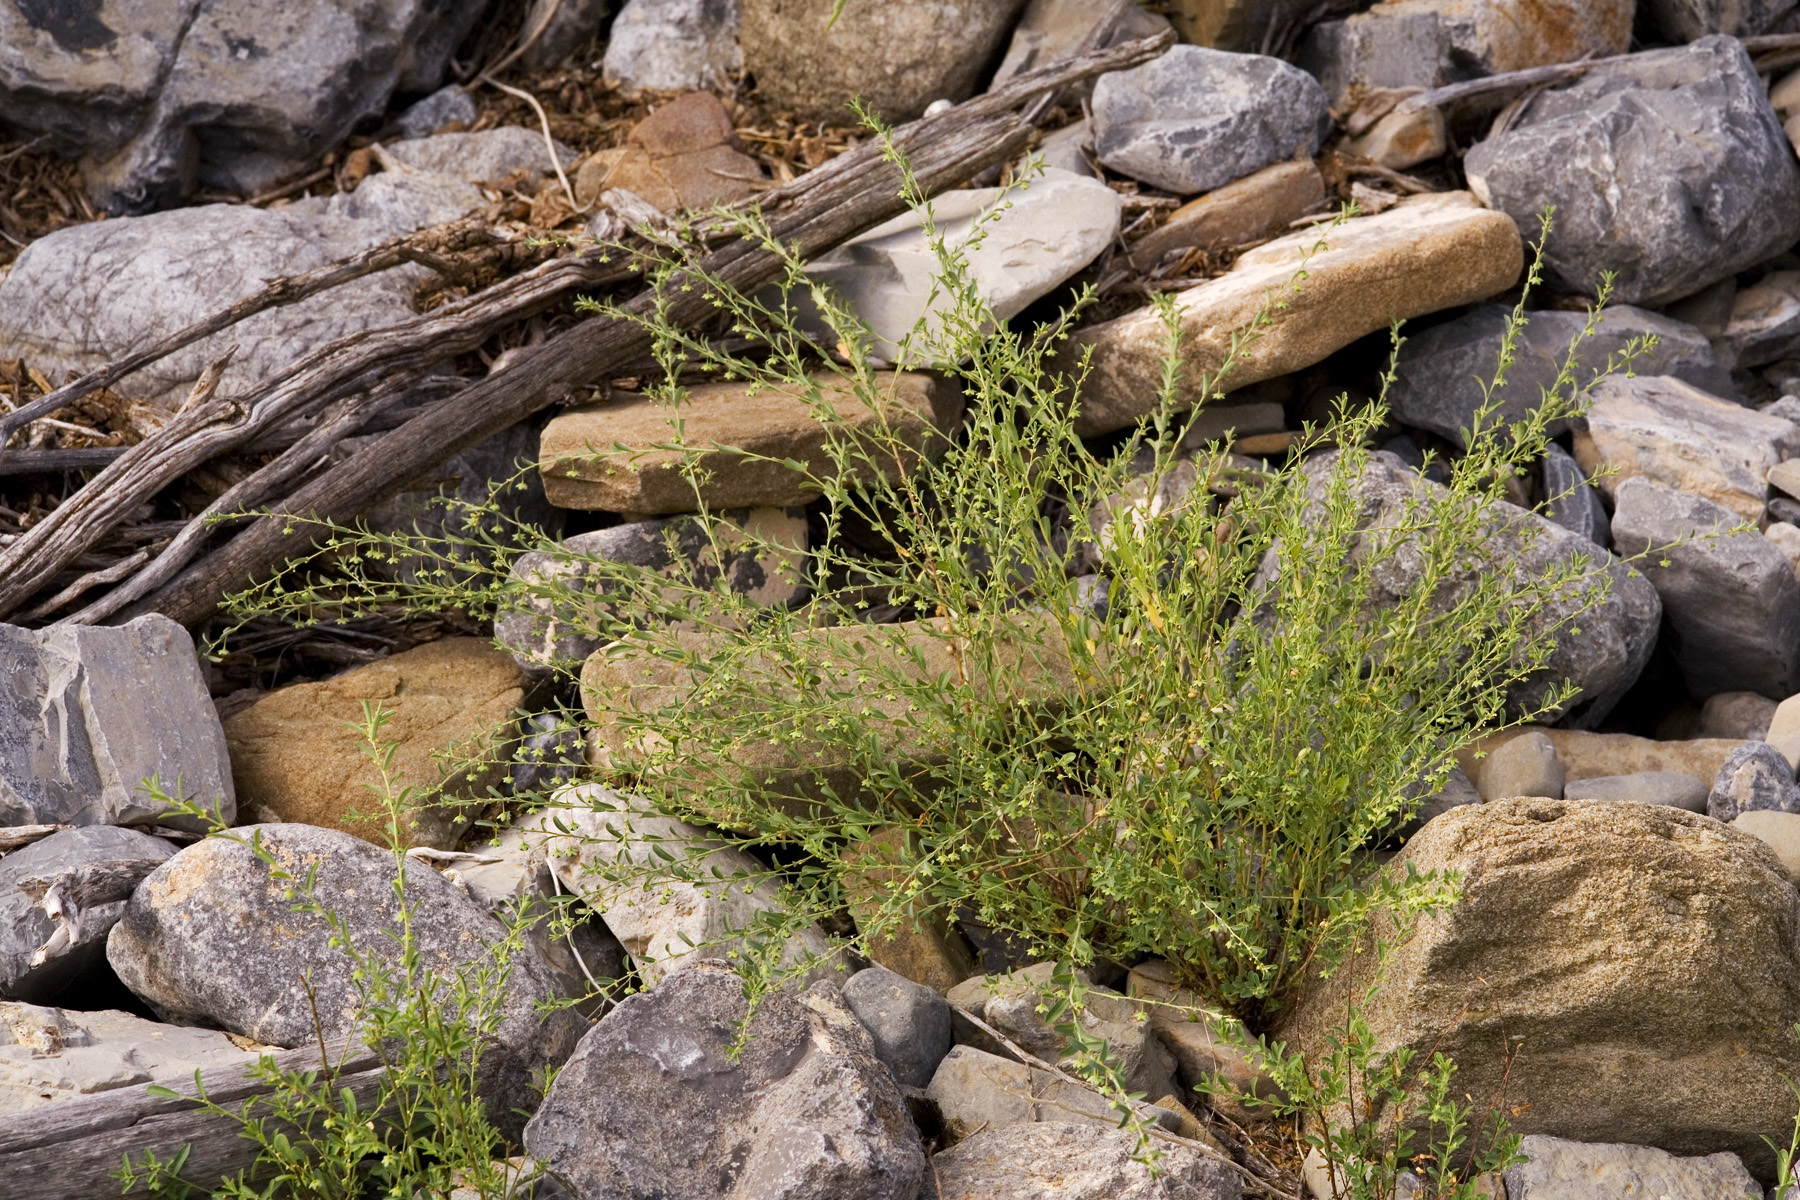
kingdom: Plantae
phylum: Tracheophyta
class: Magnoliopsida
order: Malpighiales
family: Phyllanthaceae
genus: Phyllanthus
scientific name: Phyllanthus polygonoides
